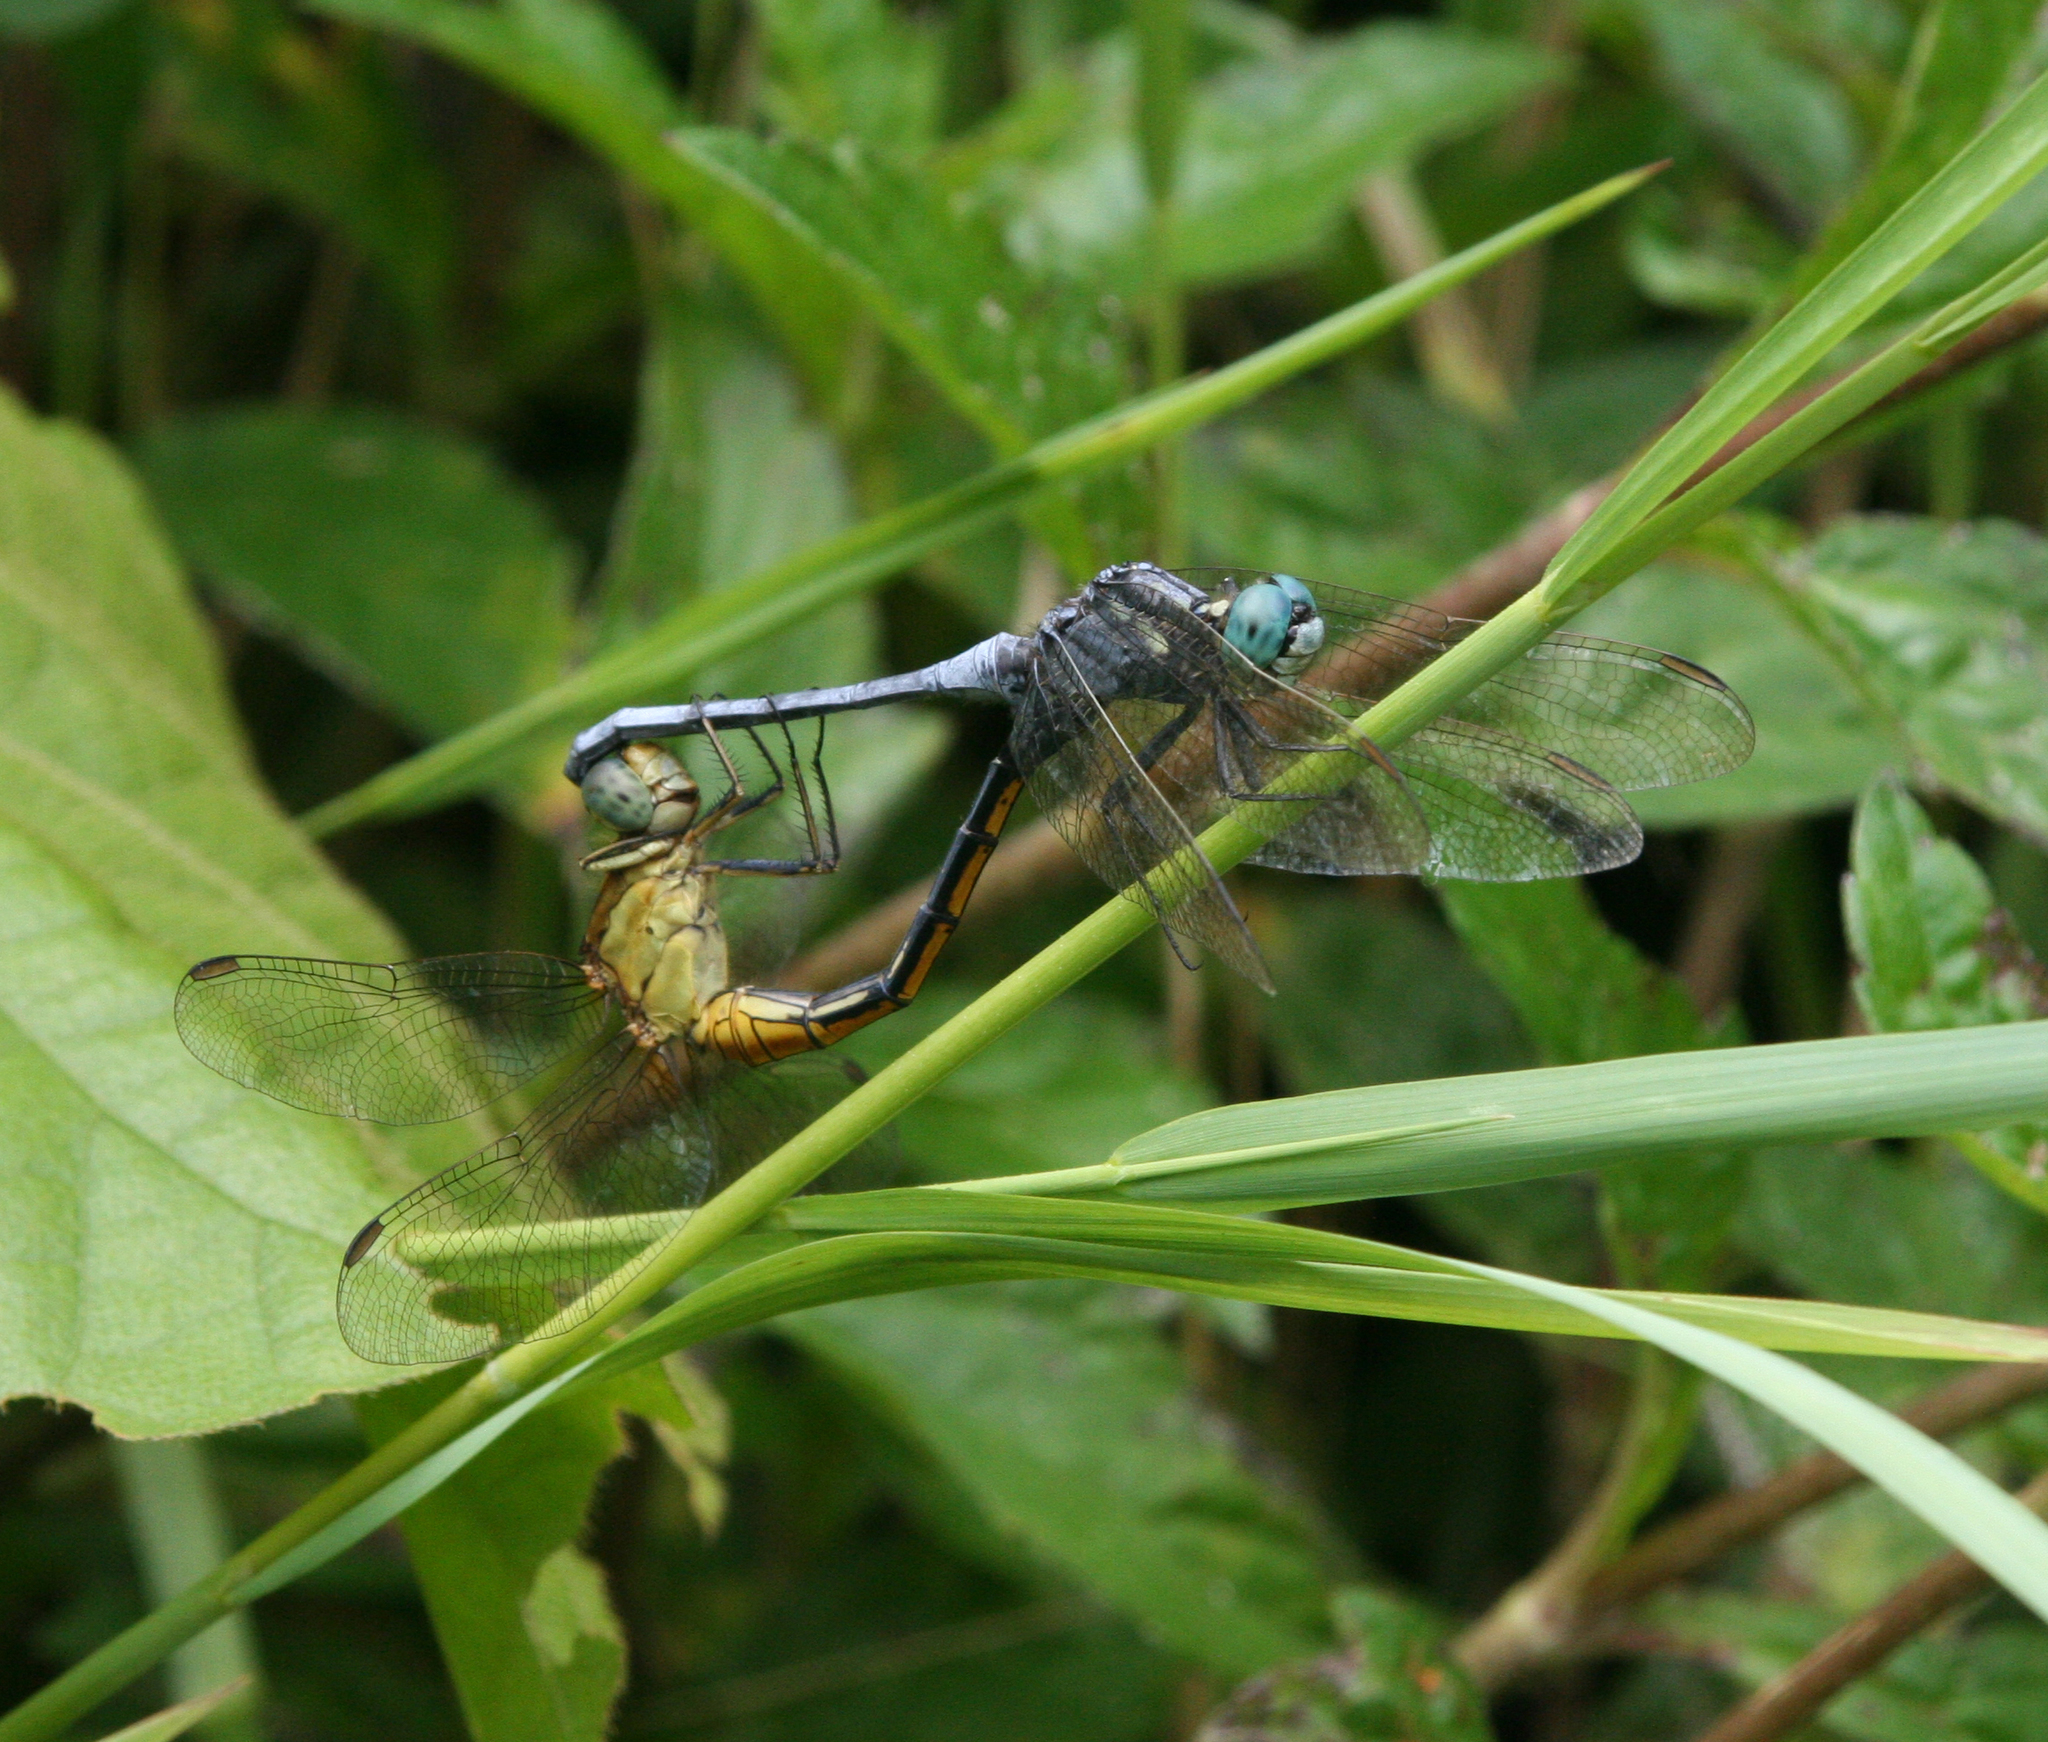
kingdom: Animalia
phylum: Arthropoda
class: Insecta
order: Odonata
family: Libellulidae
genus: Orthetrum
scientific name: Orthetrum luzonicum
